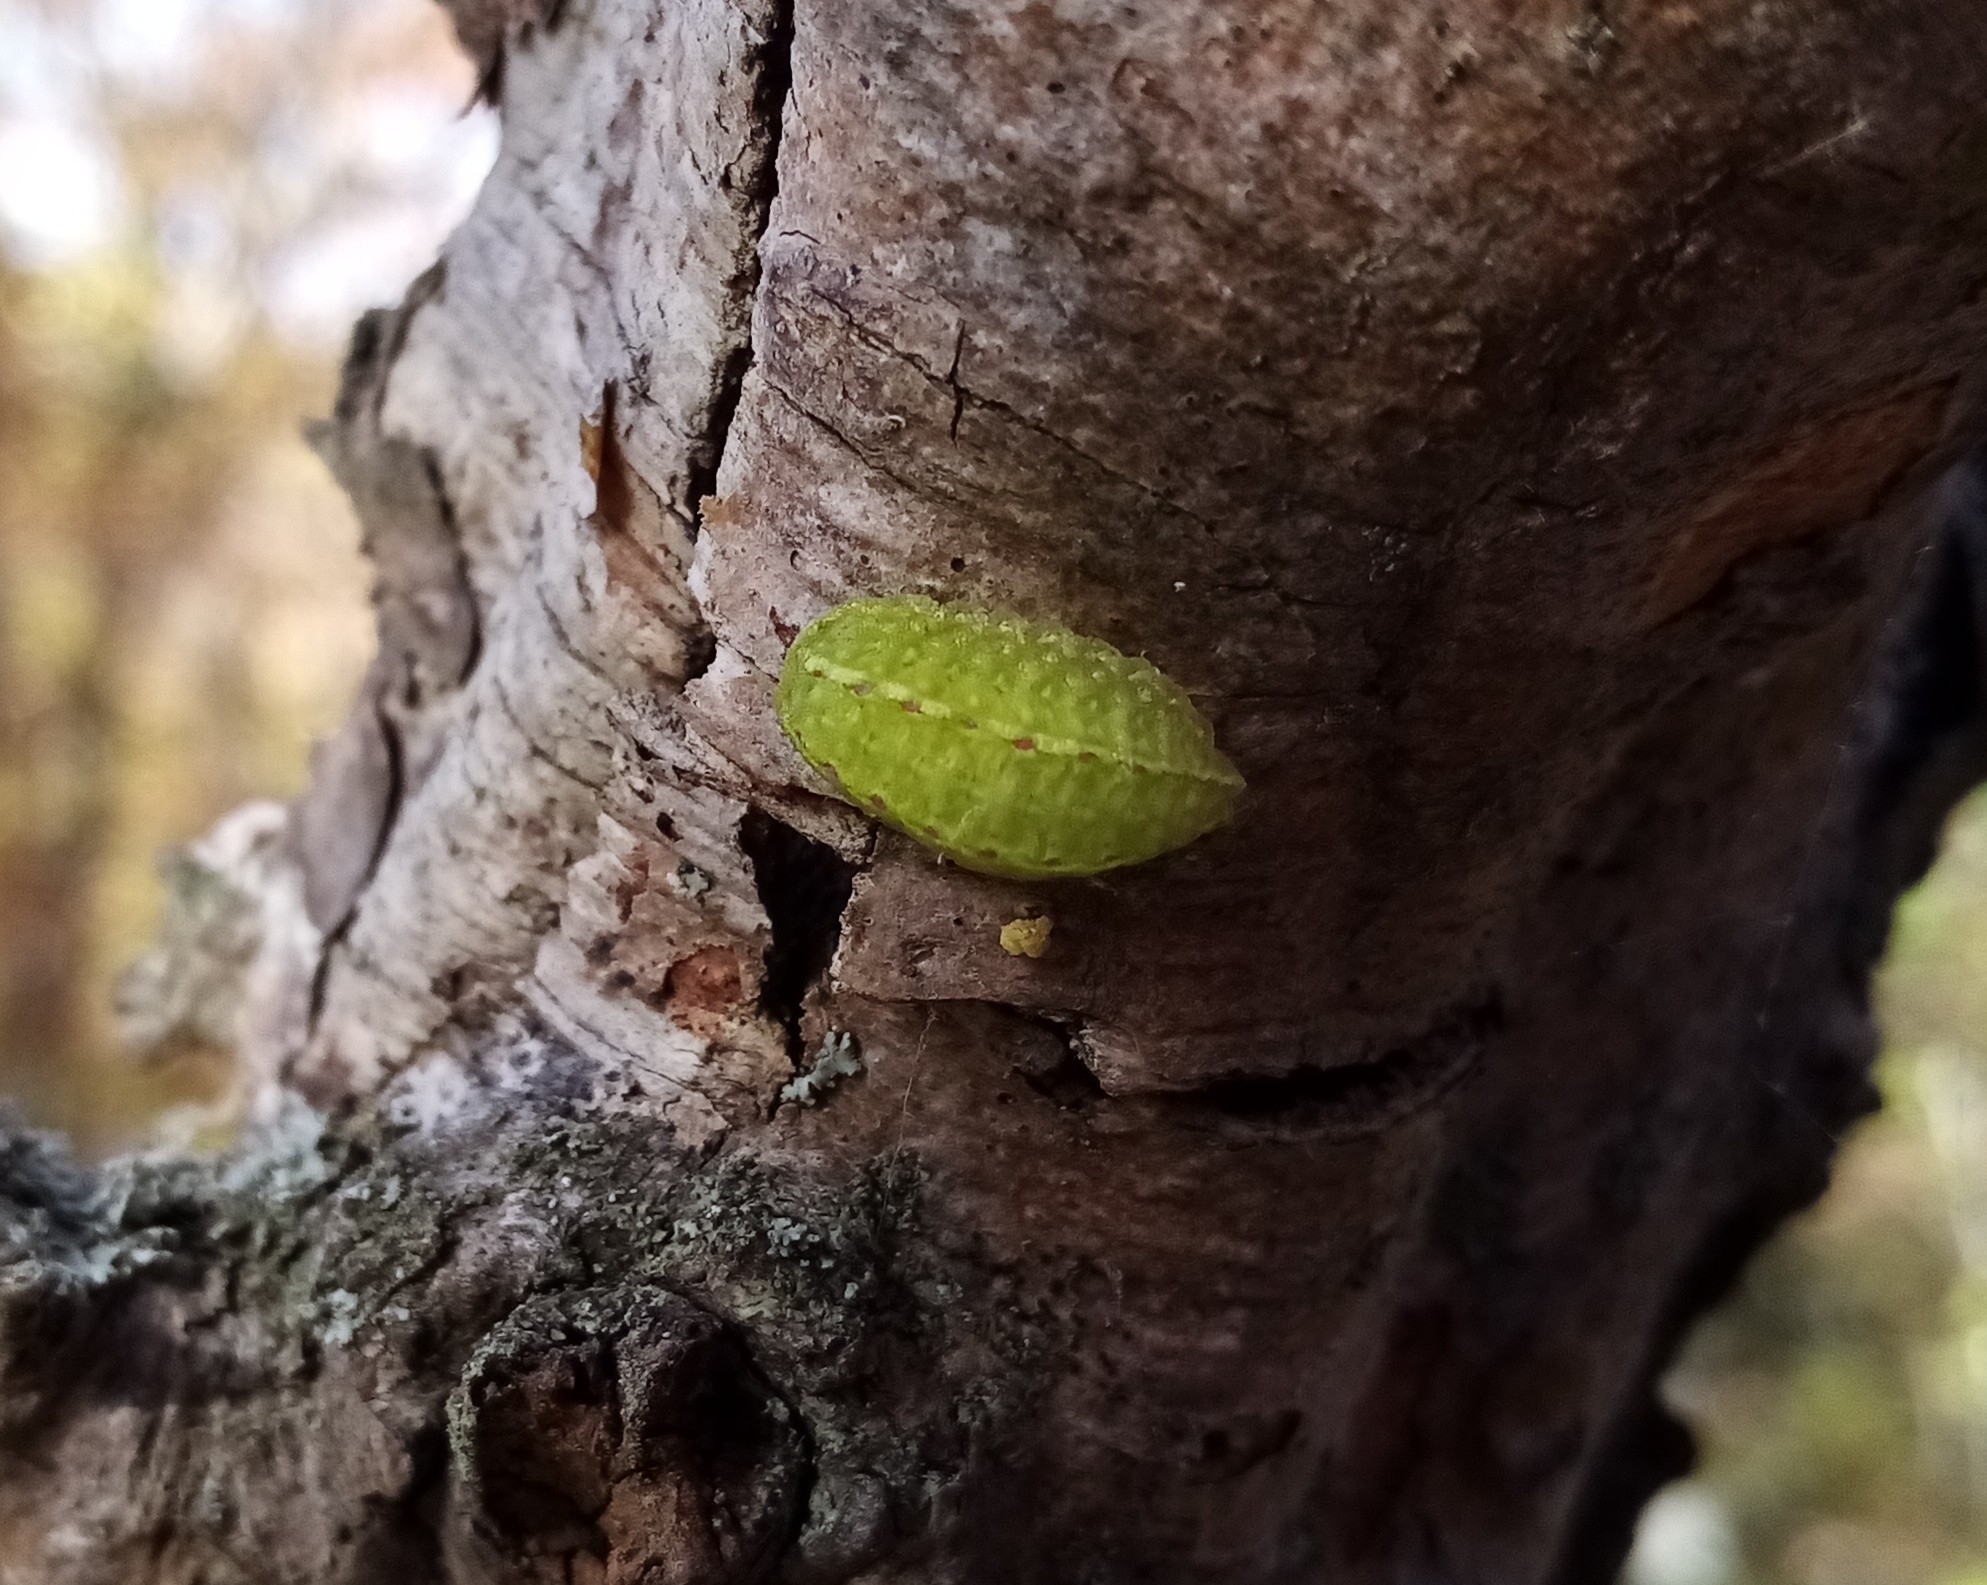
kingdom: Animalia
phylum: Arthropoda
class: Insecta
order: Lepidoptera
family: Limacodidae
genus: Apoda
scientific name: Apoda limacodes
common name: Festoon
